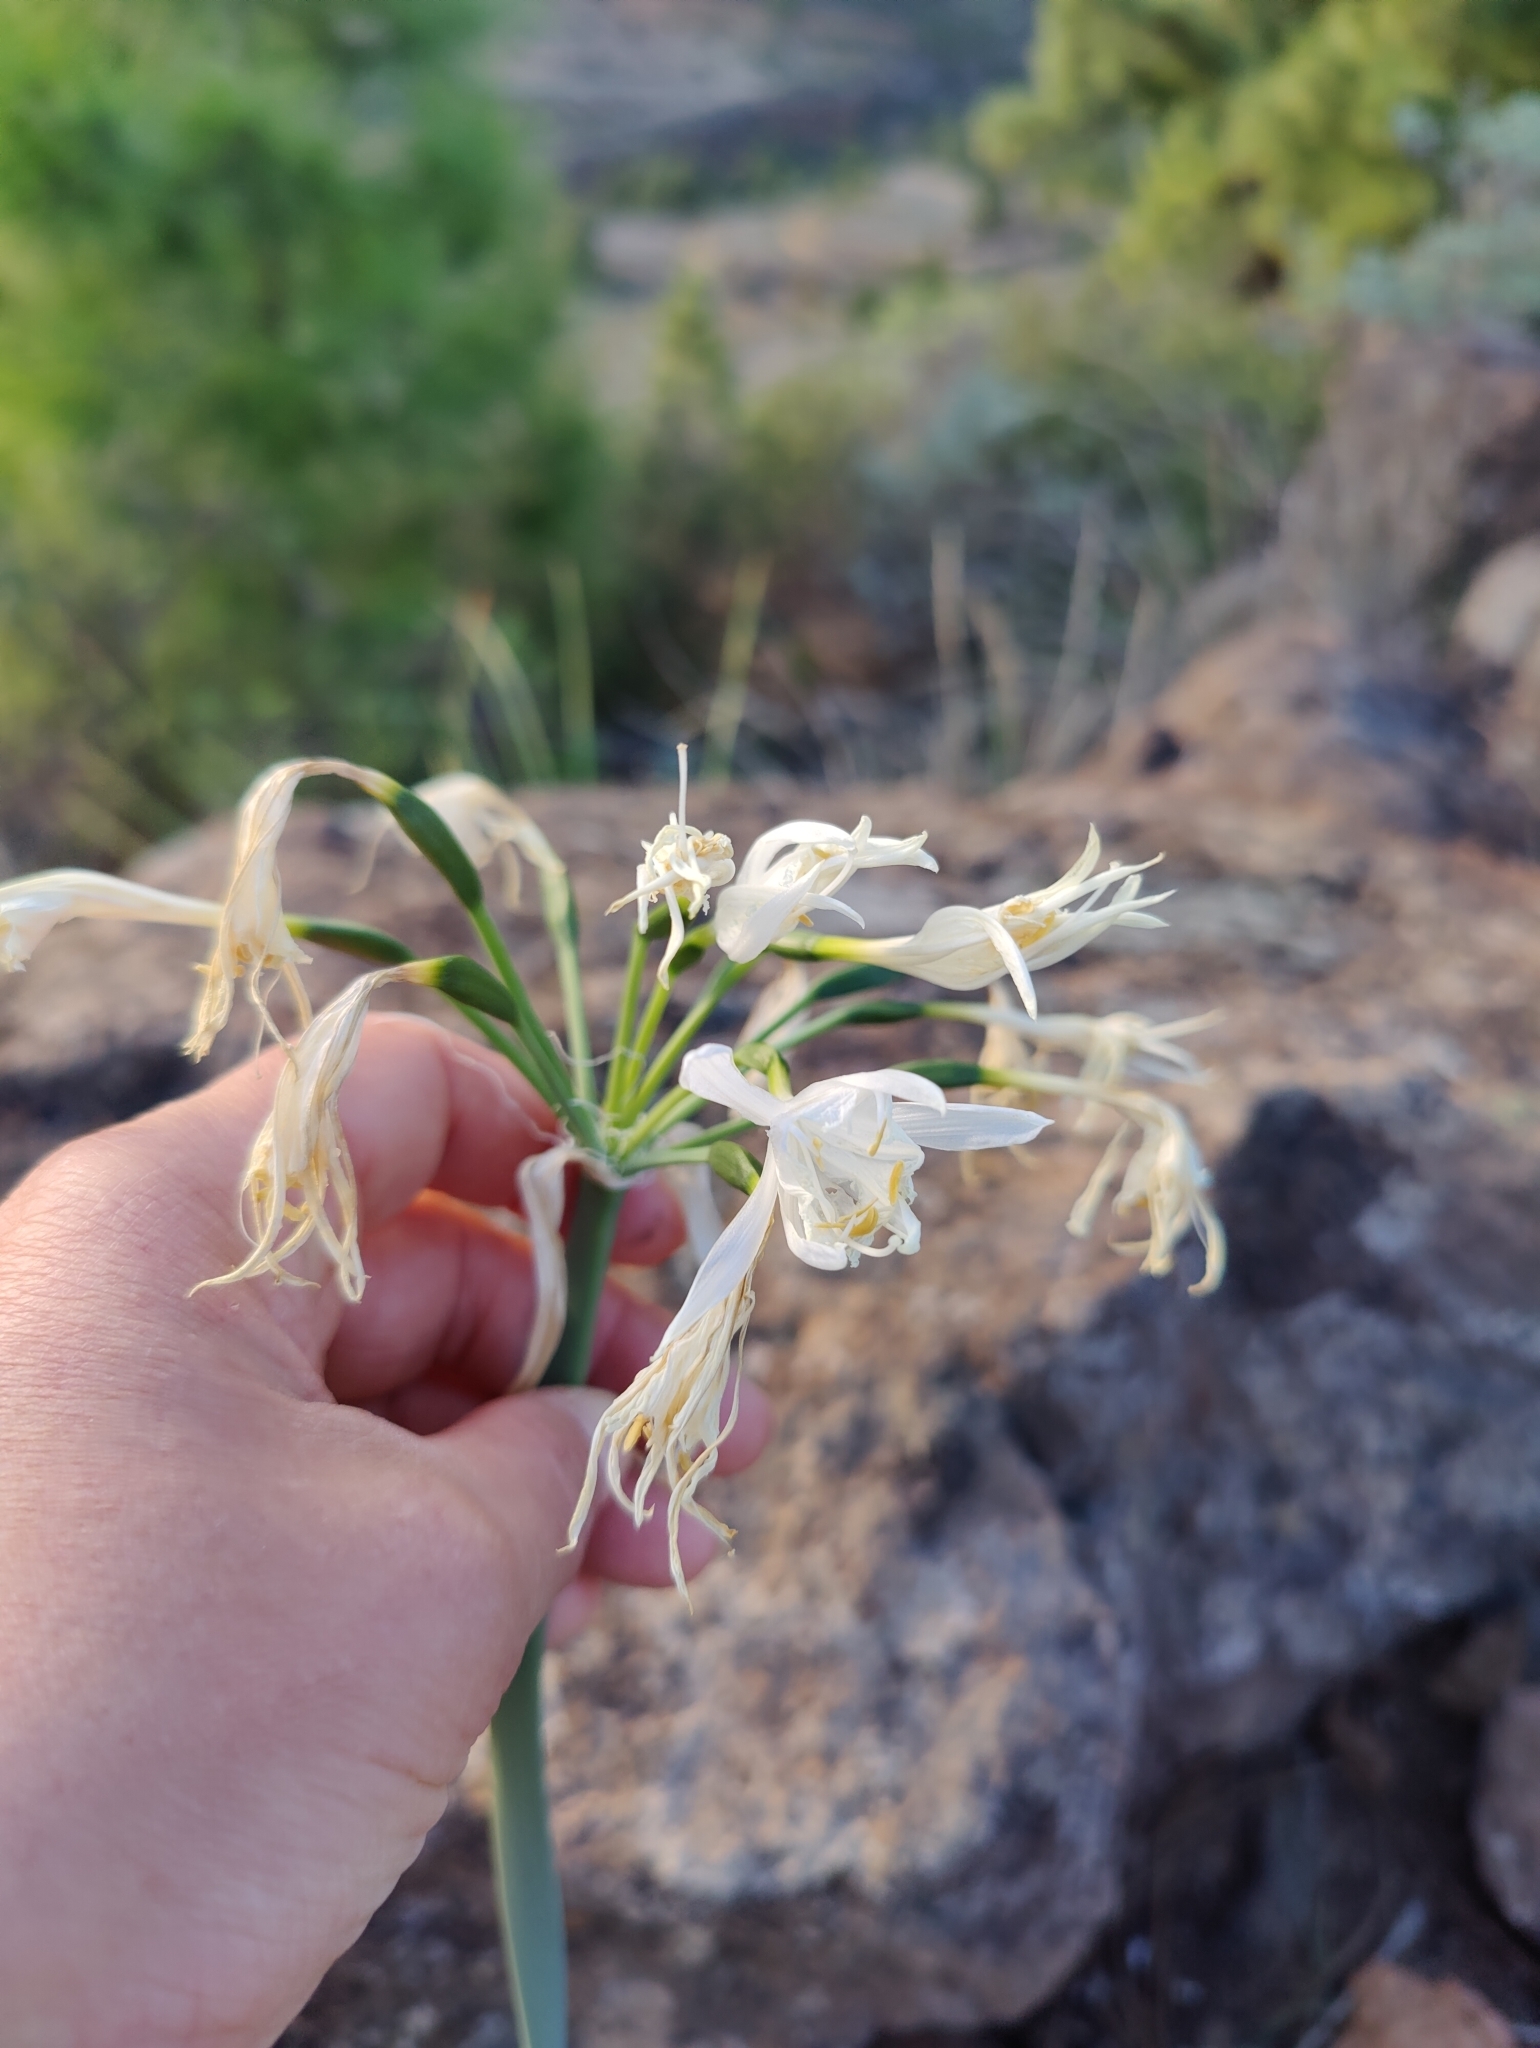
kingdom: Plantae
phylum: Tracheophyta
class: Liliopsida
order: Asparagales
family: Amaryllidaceae
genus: Pancratium
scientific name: Pancratium canariense
